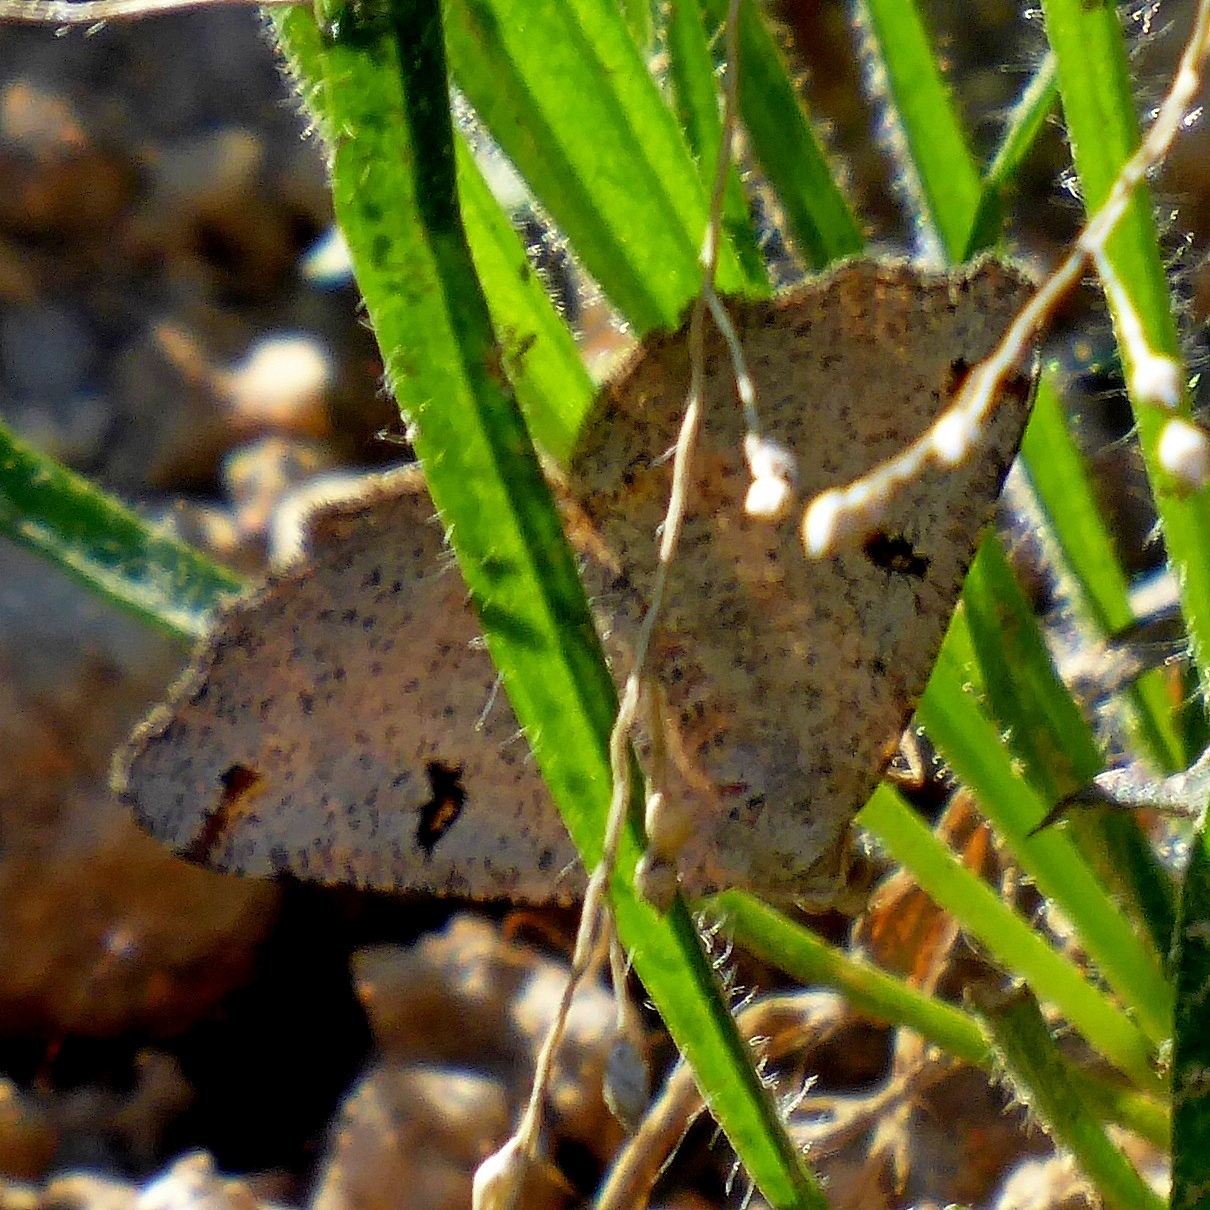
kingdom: Animalia
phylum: Arthropoda
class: Insecta
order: Lepidoptera
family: Geometridae
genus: Dissomorphia
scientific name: Dissomorphia australiaria
